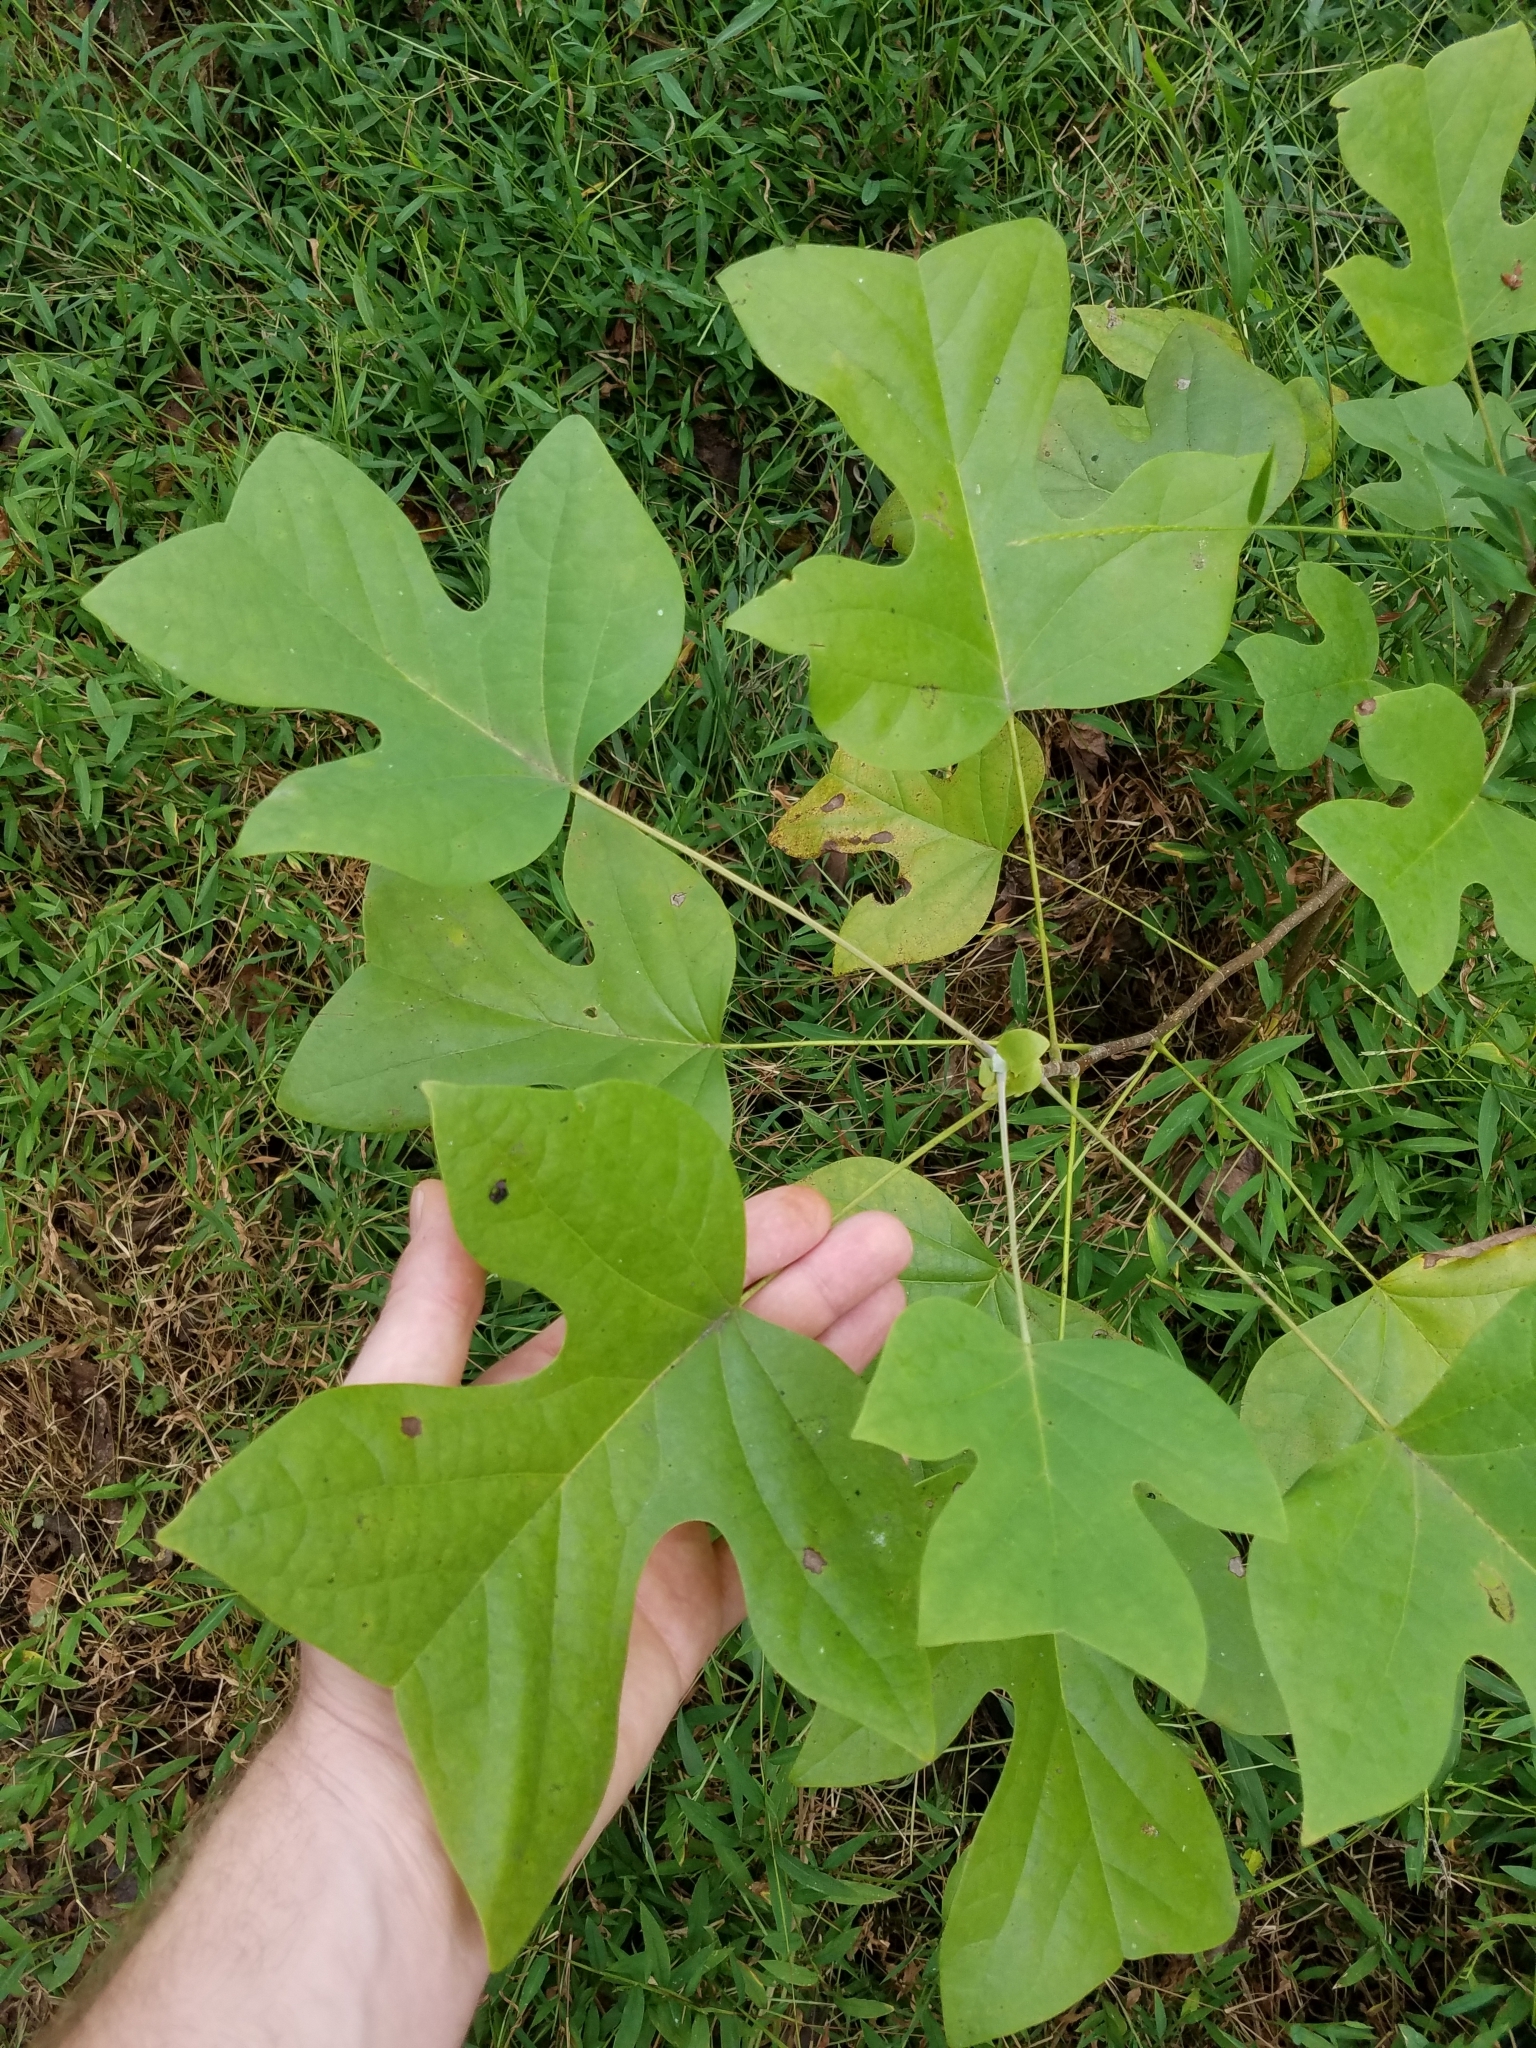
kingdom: Plantae
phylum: Tracheophyta
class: Magnoliopsida
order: Magnoliales
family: Magnoliaceae
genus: Liriodendron
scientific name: Liriodendron tulipifera
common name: Tulip tree
